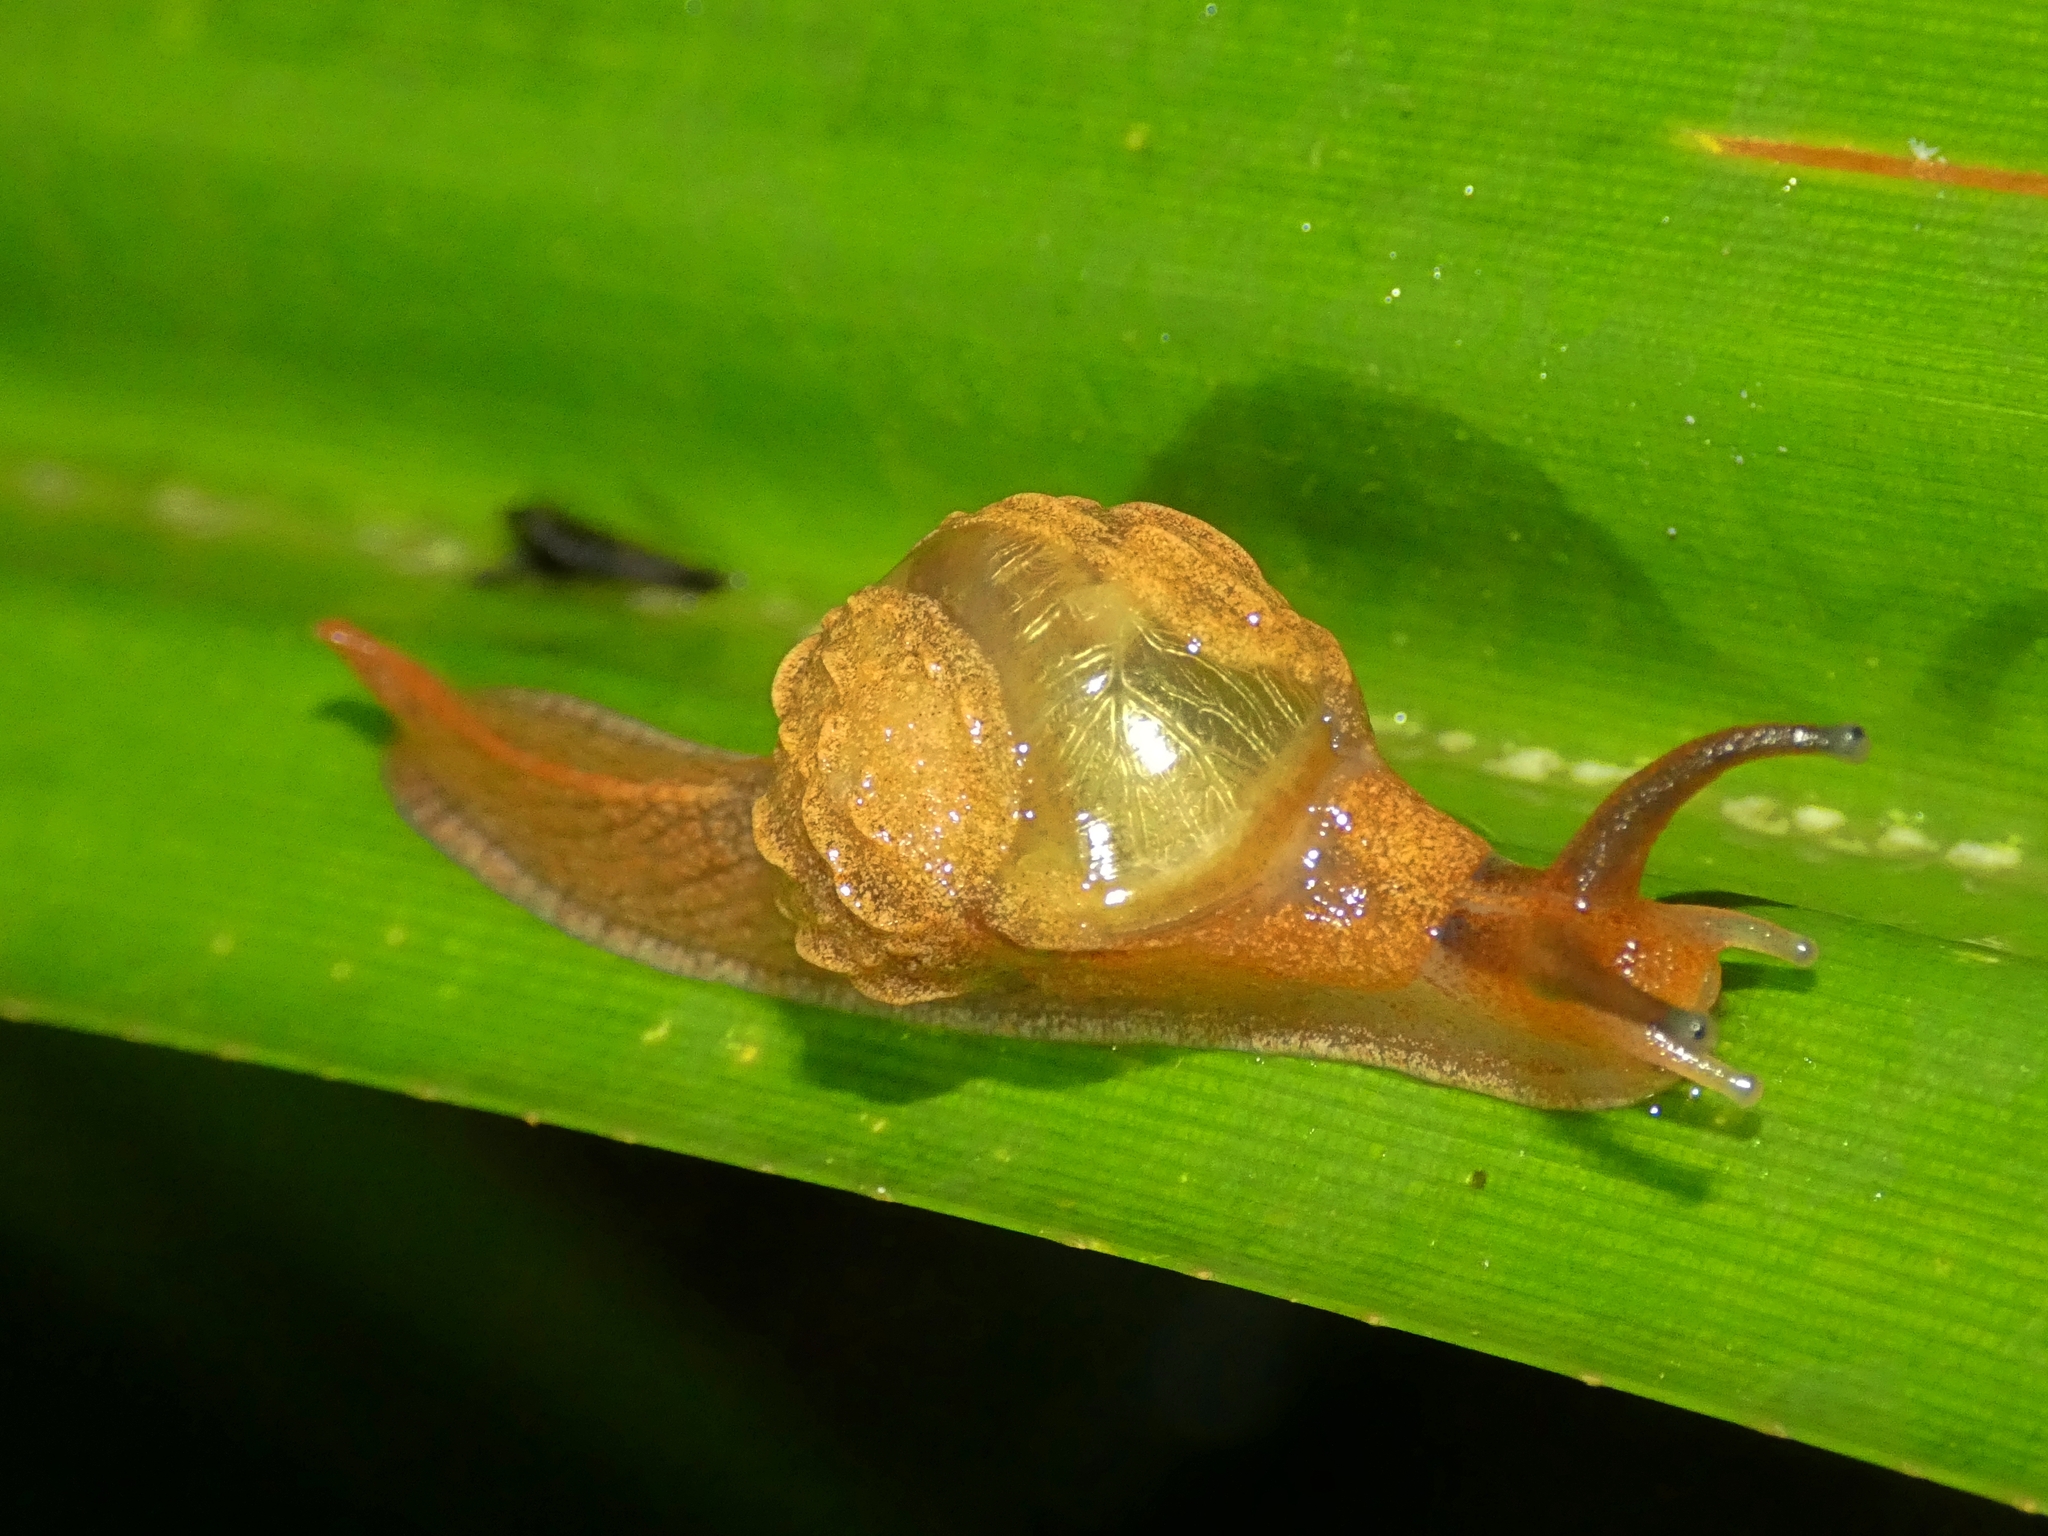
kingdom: Animalia
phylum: Mollusca
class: Gastropoda
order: Stylommatophora
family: Helicarionidae
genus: Fastosarion
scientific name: Fastosarion brazieri
